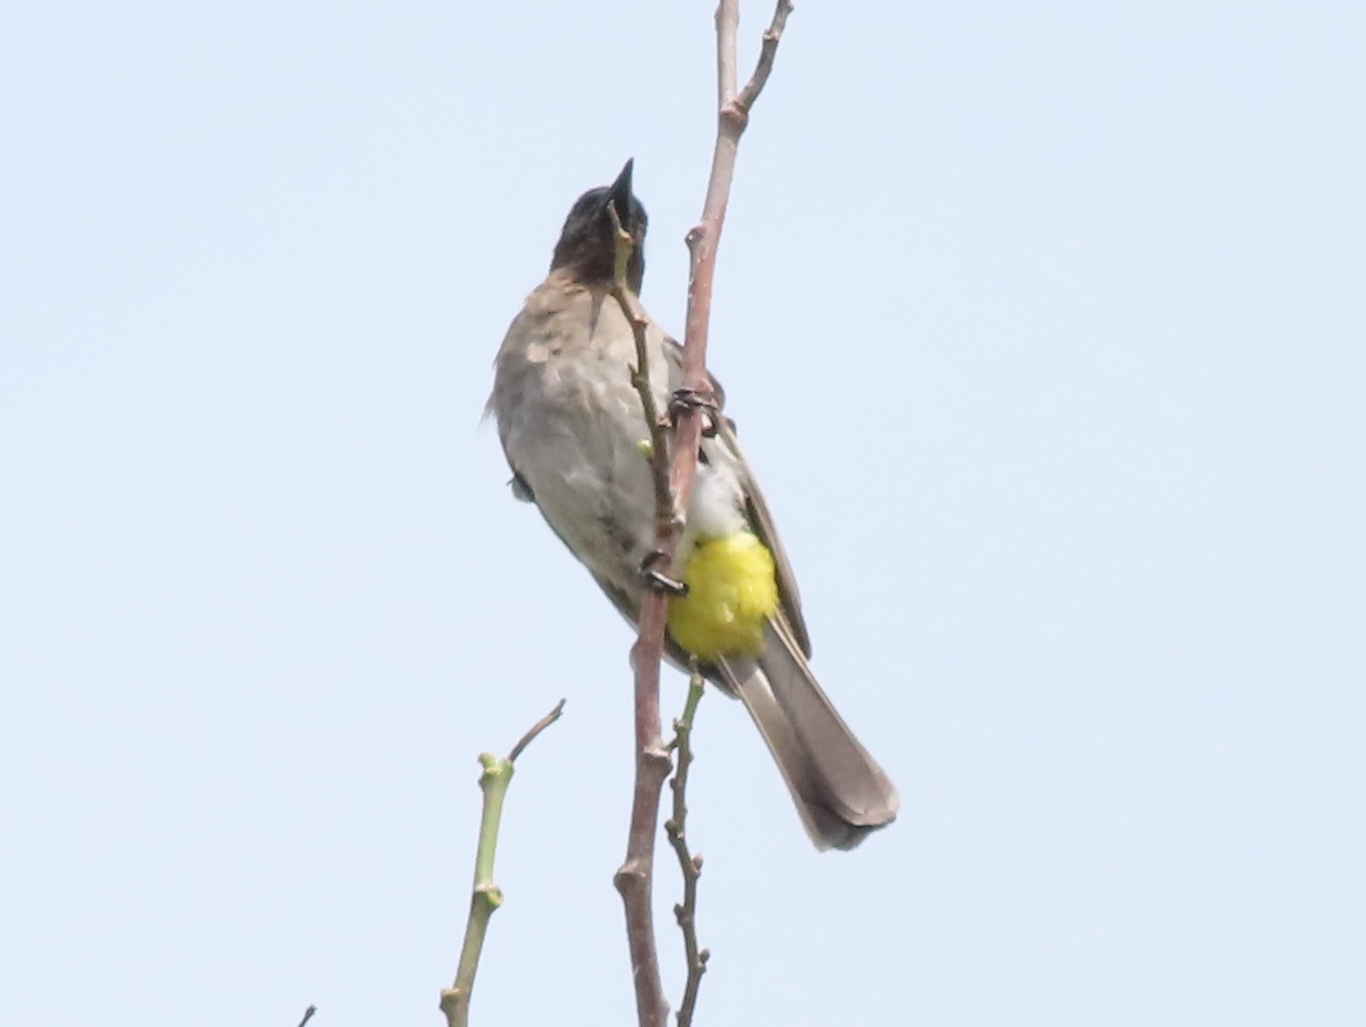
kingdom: Animalia
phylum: Chordata
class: Aves
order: Passeriformes
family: Pycnonotidae
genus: Pycnonotus
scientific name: Pycnonotus barbatus
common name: Common bulbul
